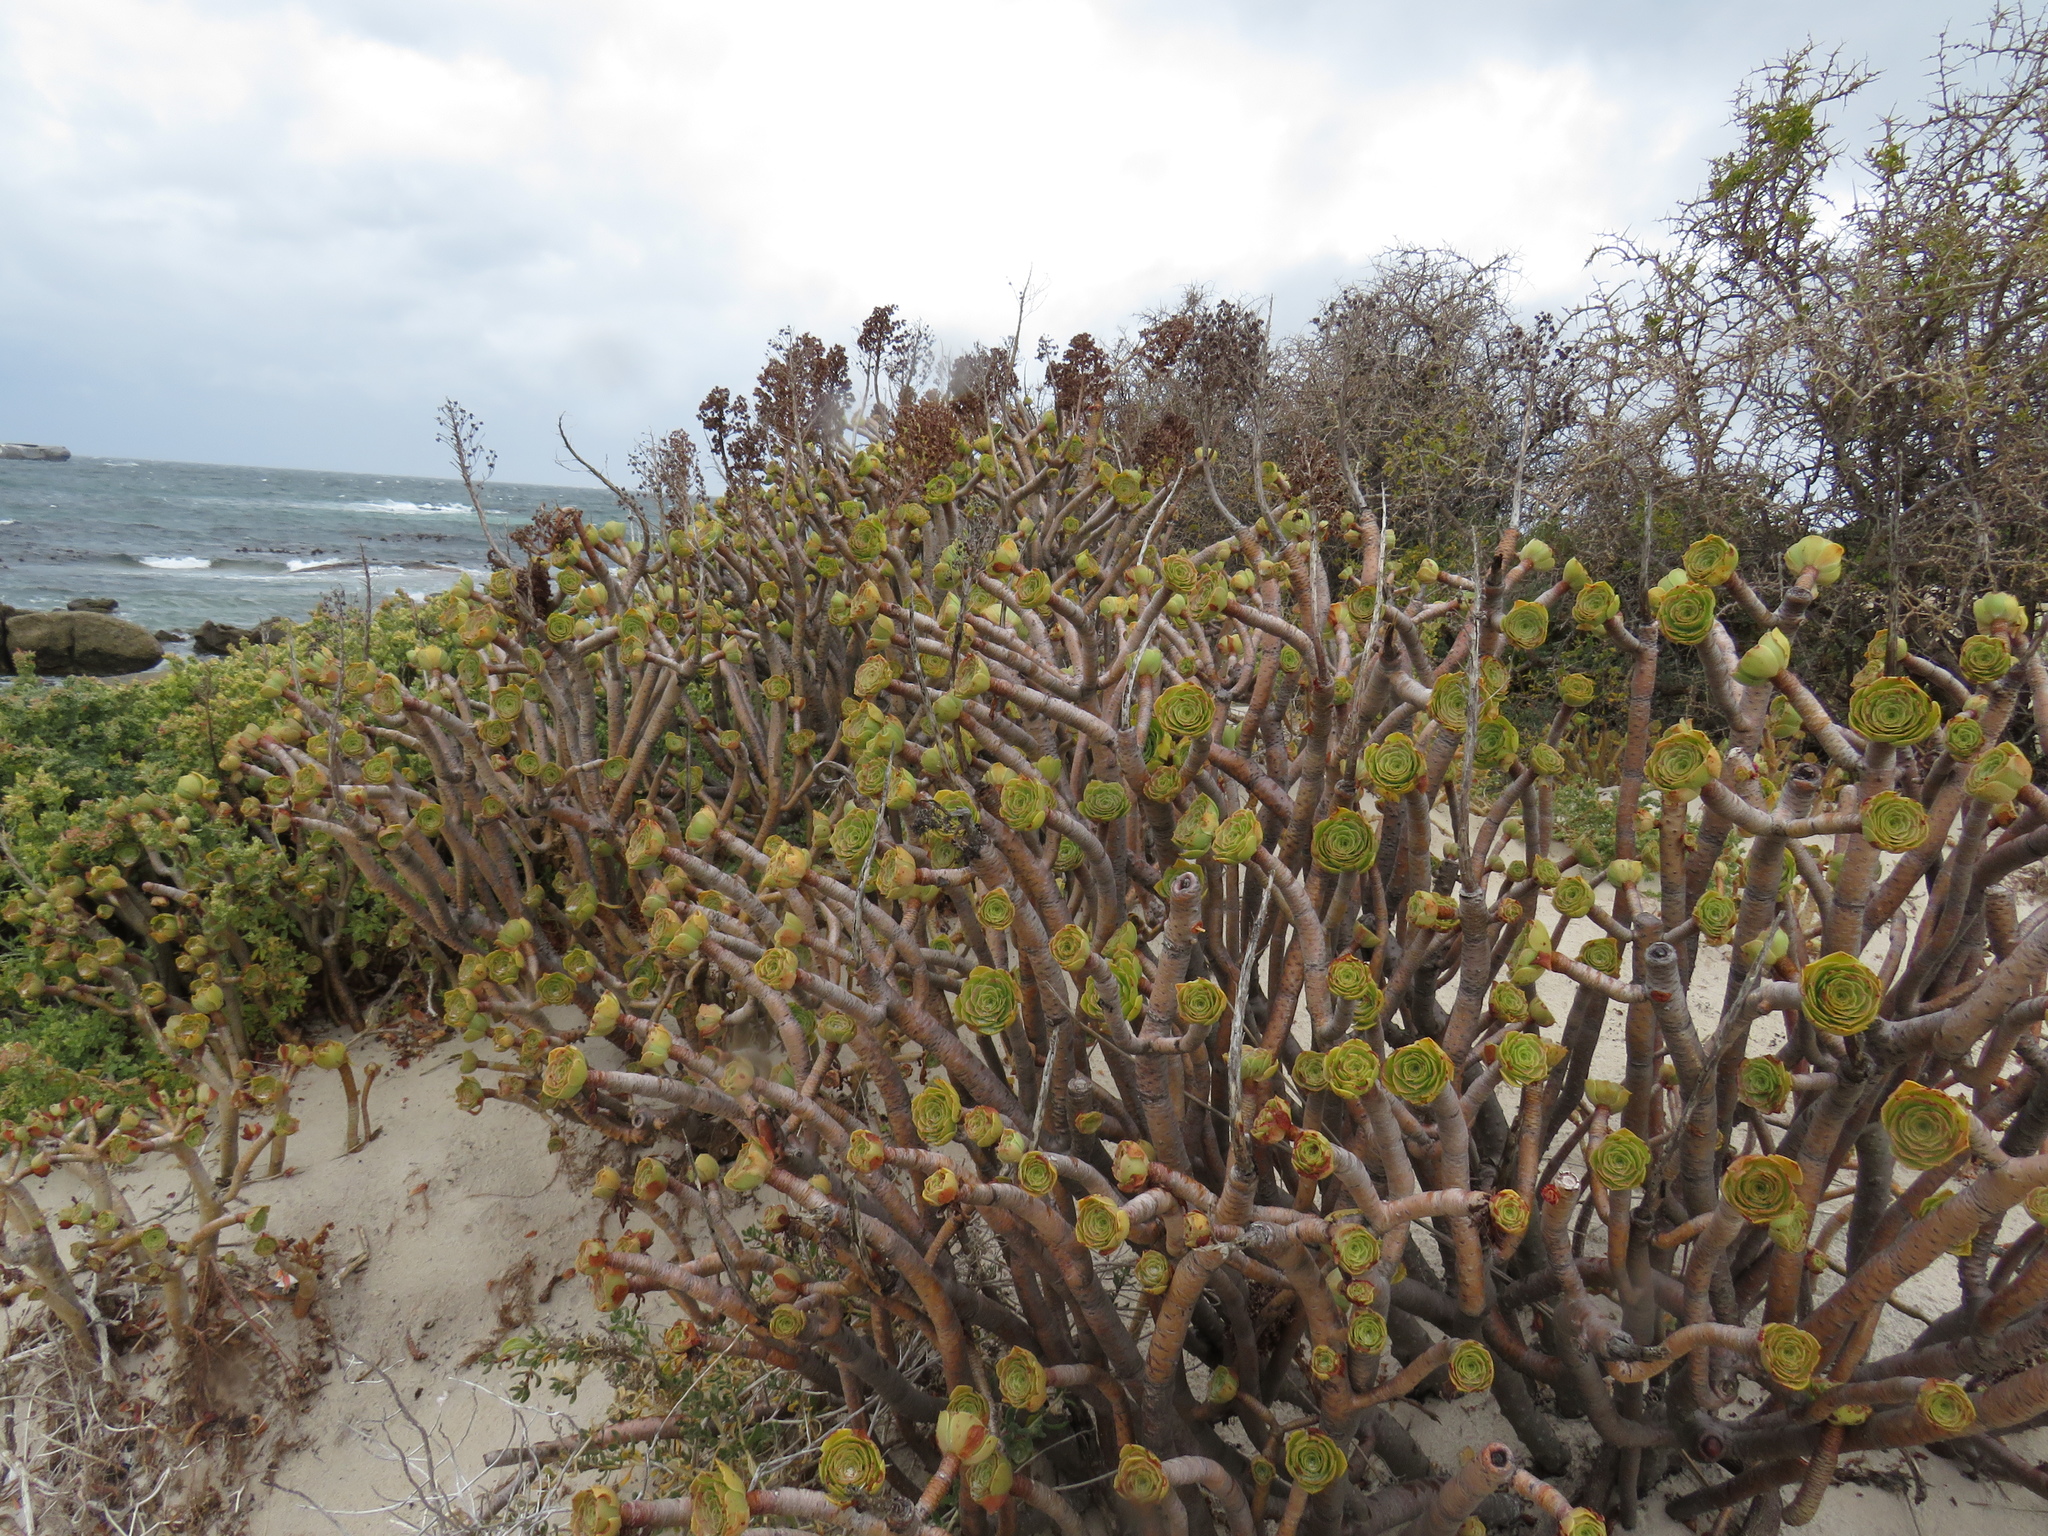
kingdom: Plantae
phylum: Tracheophyta
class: Magnoliopsida
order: Saxifragales
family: Crassulaceae
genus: Aeonium
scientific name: Aeonium arboreum
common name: Tree aeonium
